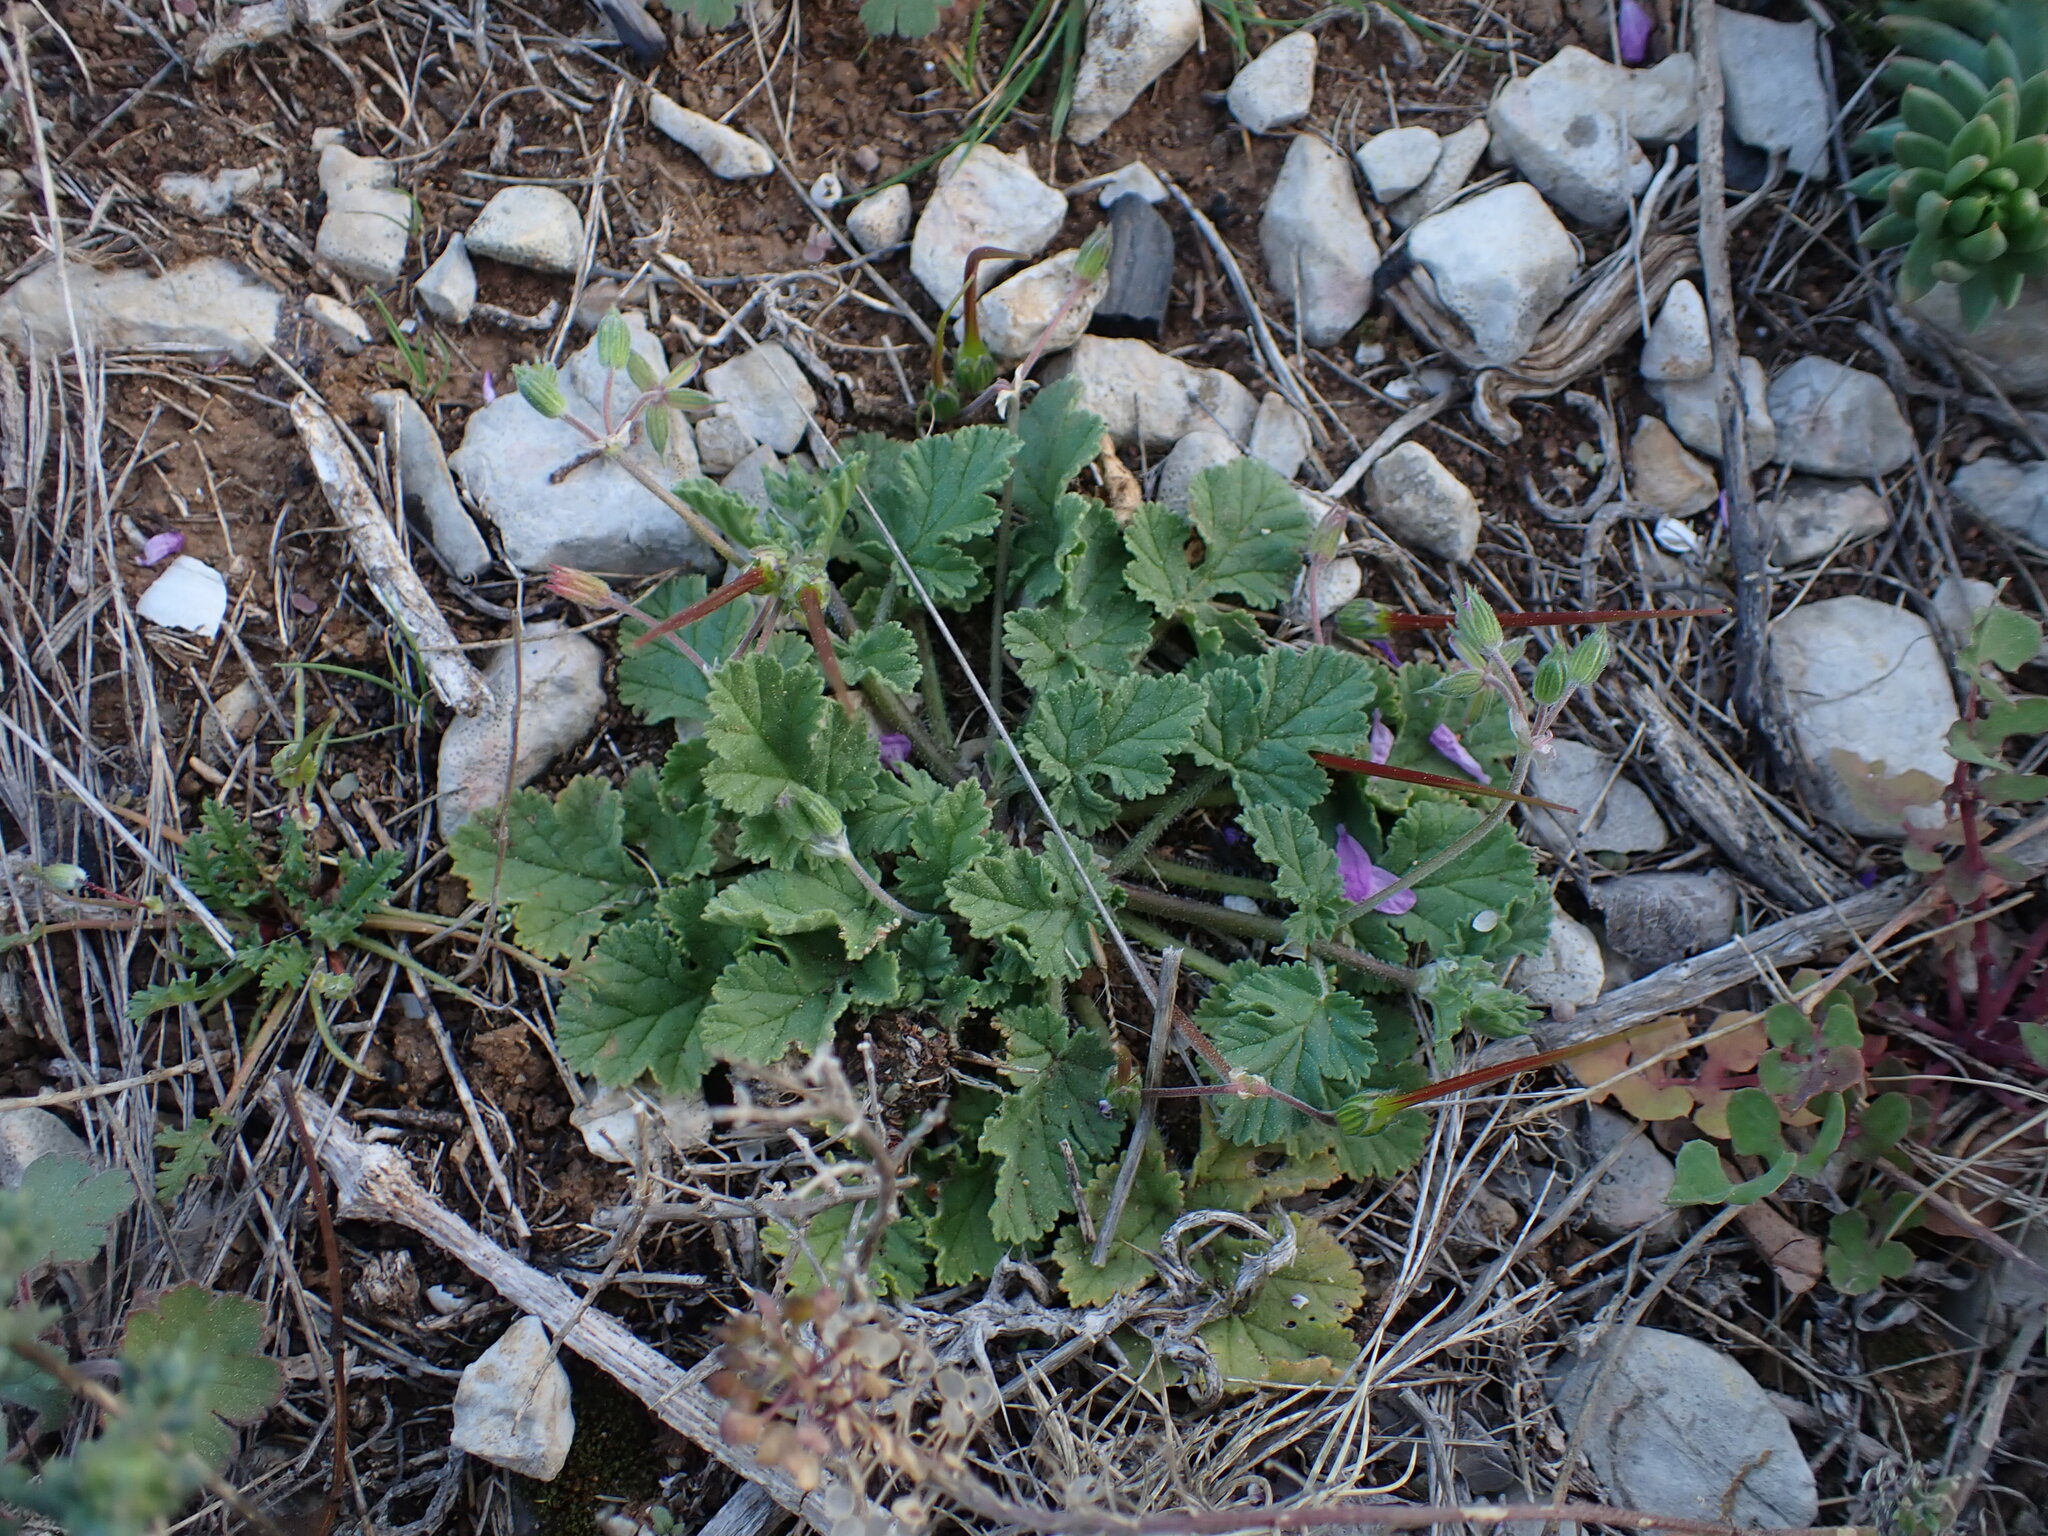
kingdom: Plantae
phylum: Tracheophyta
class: Magnoliopsida
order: Geraniales
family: Geraniaceae
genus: Erodium
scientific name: Erodium malacoides
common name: Soft stork's-bill
